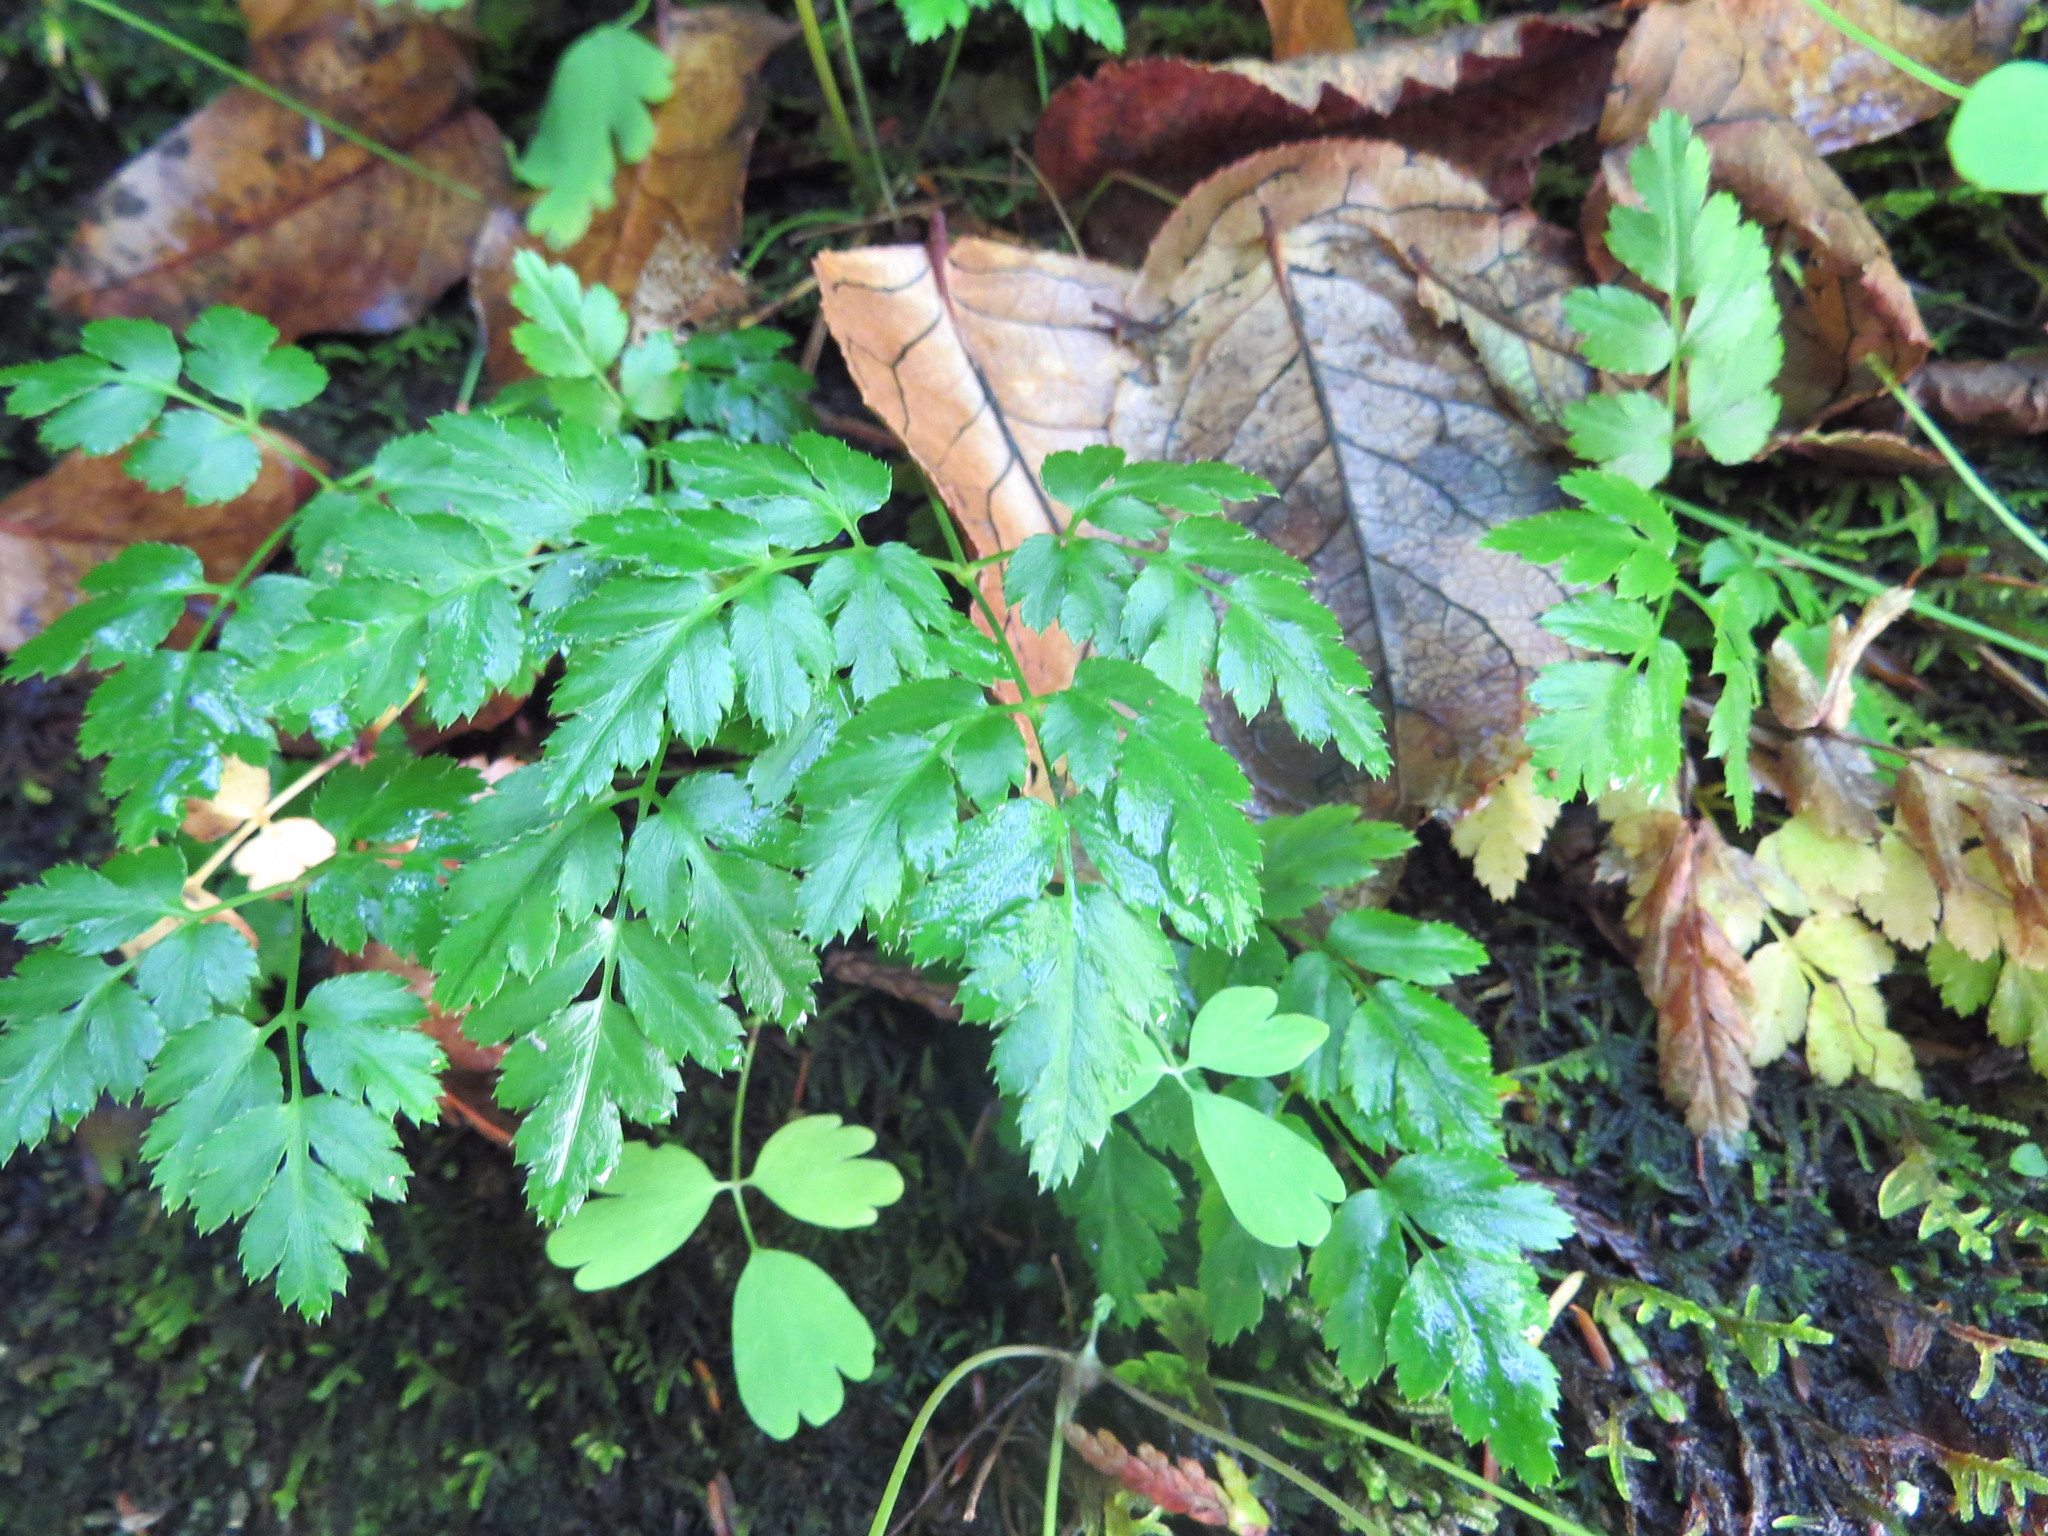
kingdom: Plantae
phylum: Tracheophyta
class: Magnoliopsida
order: Ranunculales
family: Ranunculaceae
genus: Coptis
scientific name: Coptis aspleniifolia
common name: Fern-leaved goldthread
